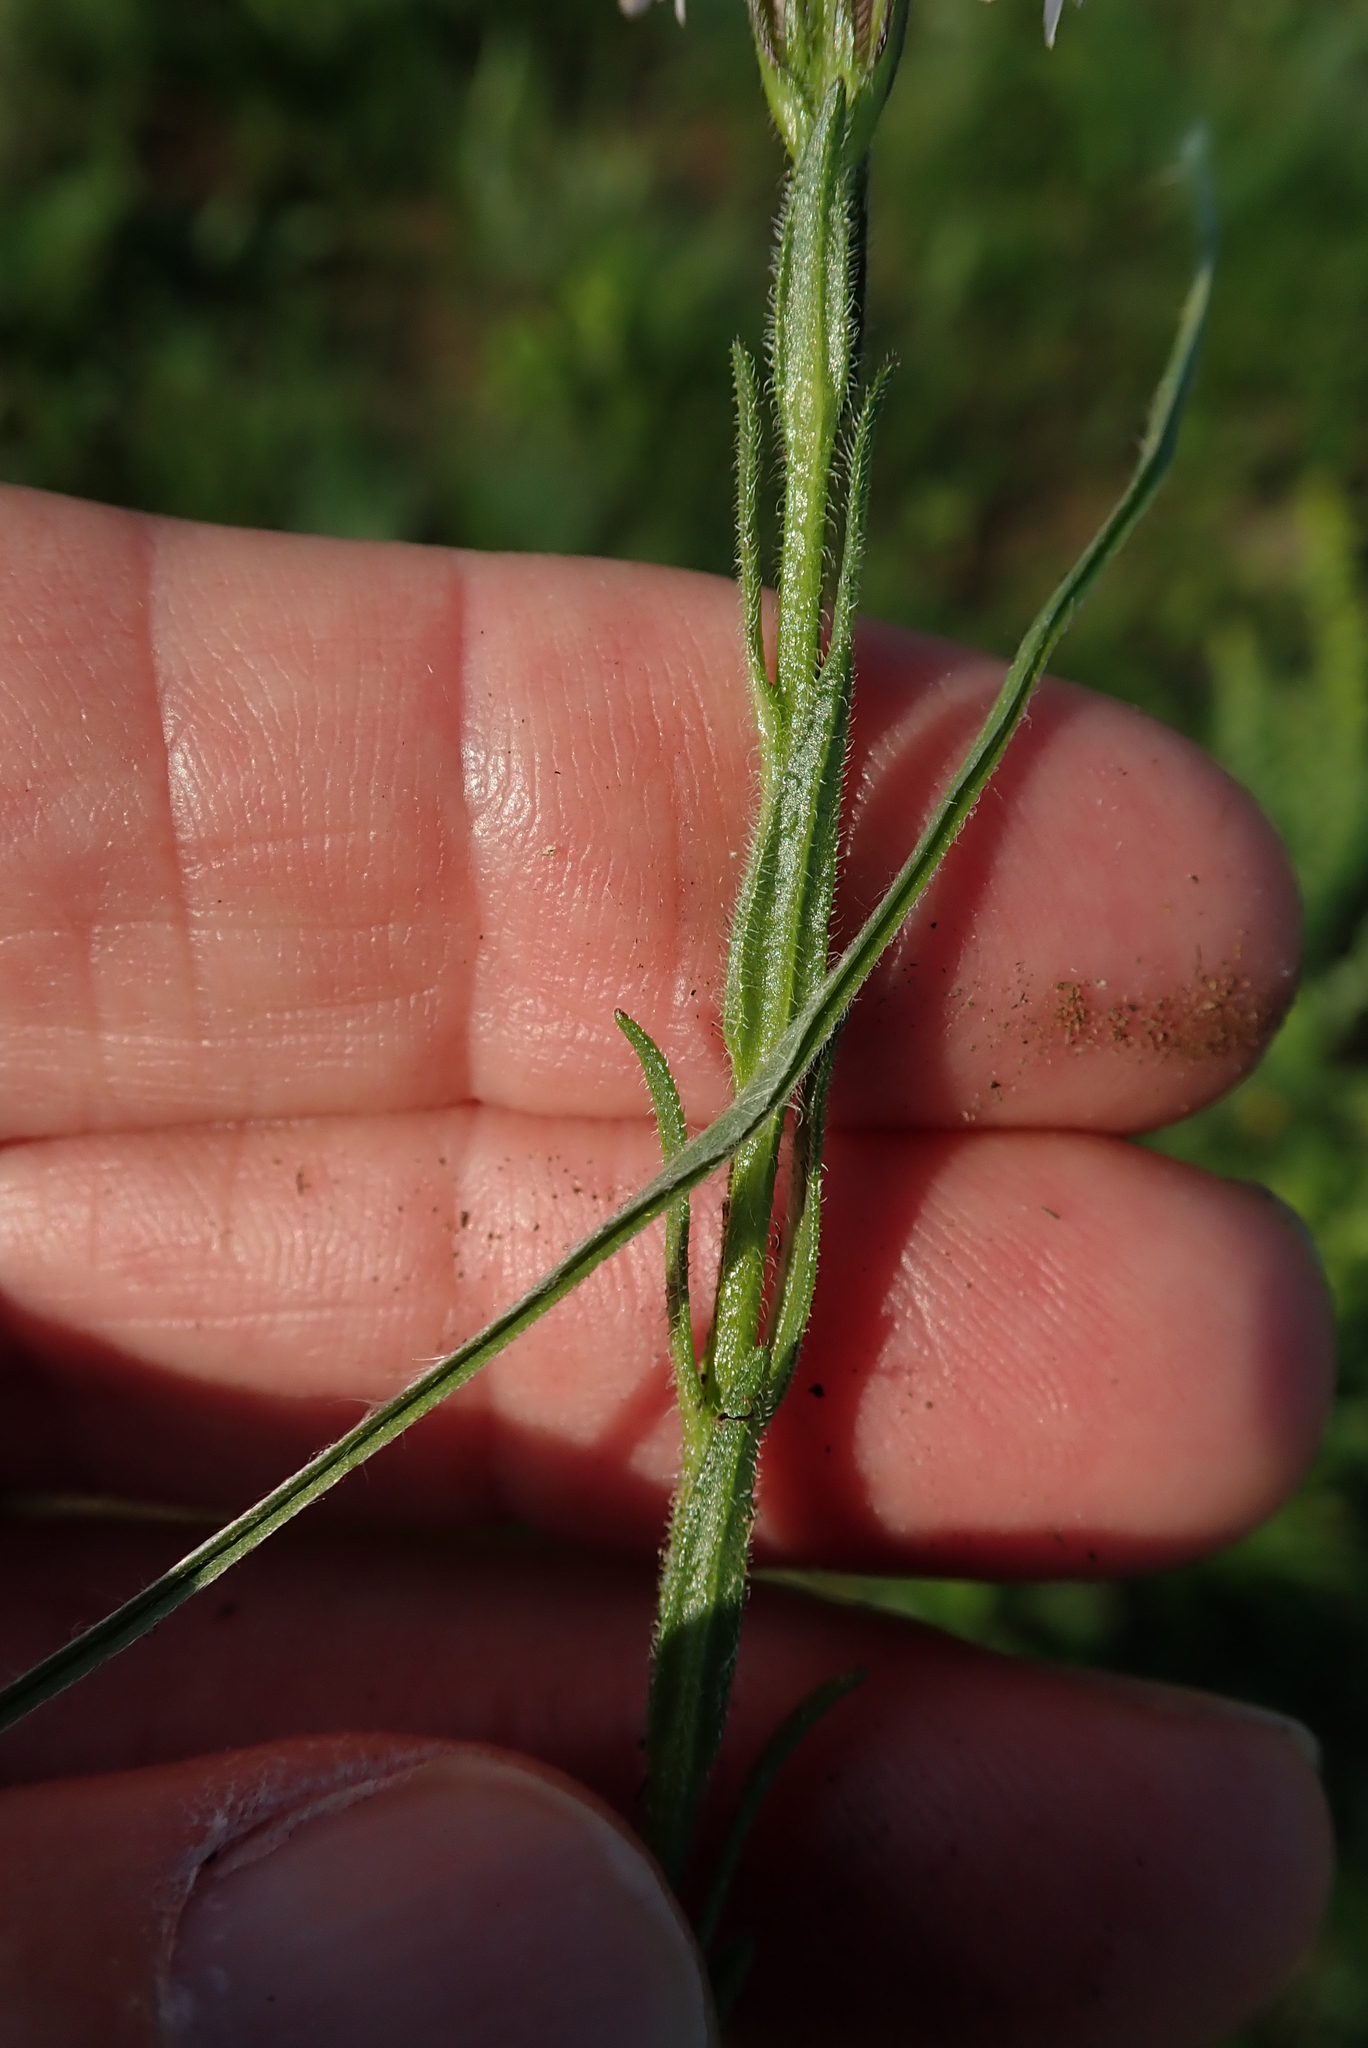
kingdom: Plantae
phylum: Tracheophyta
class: Magnoliopsida
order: Lamiales
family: Orobanchaceae
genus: Striga
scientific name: Striga bilabiata
